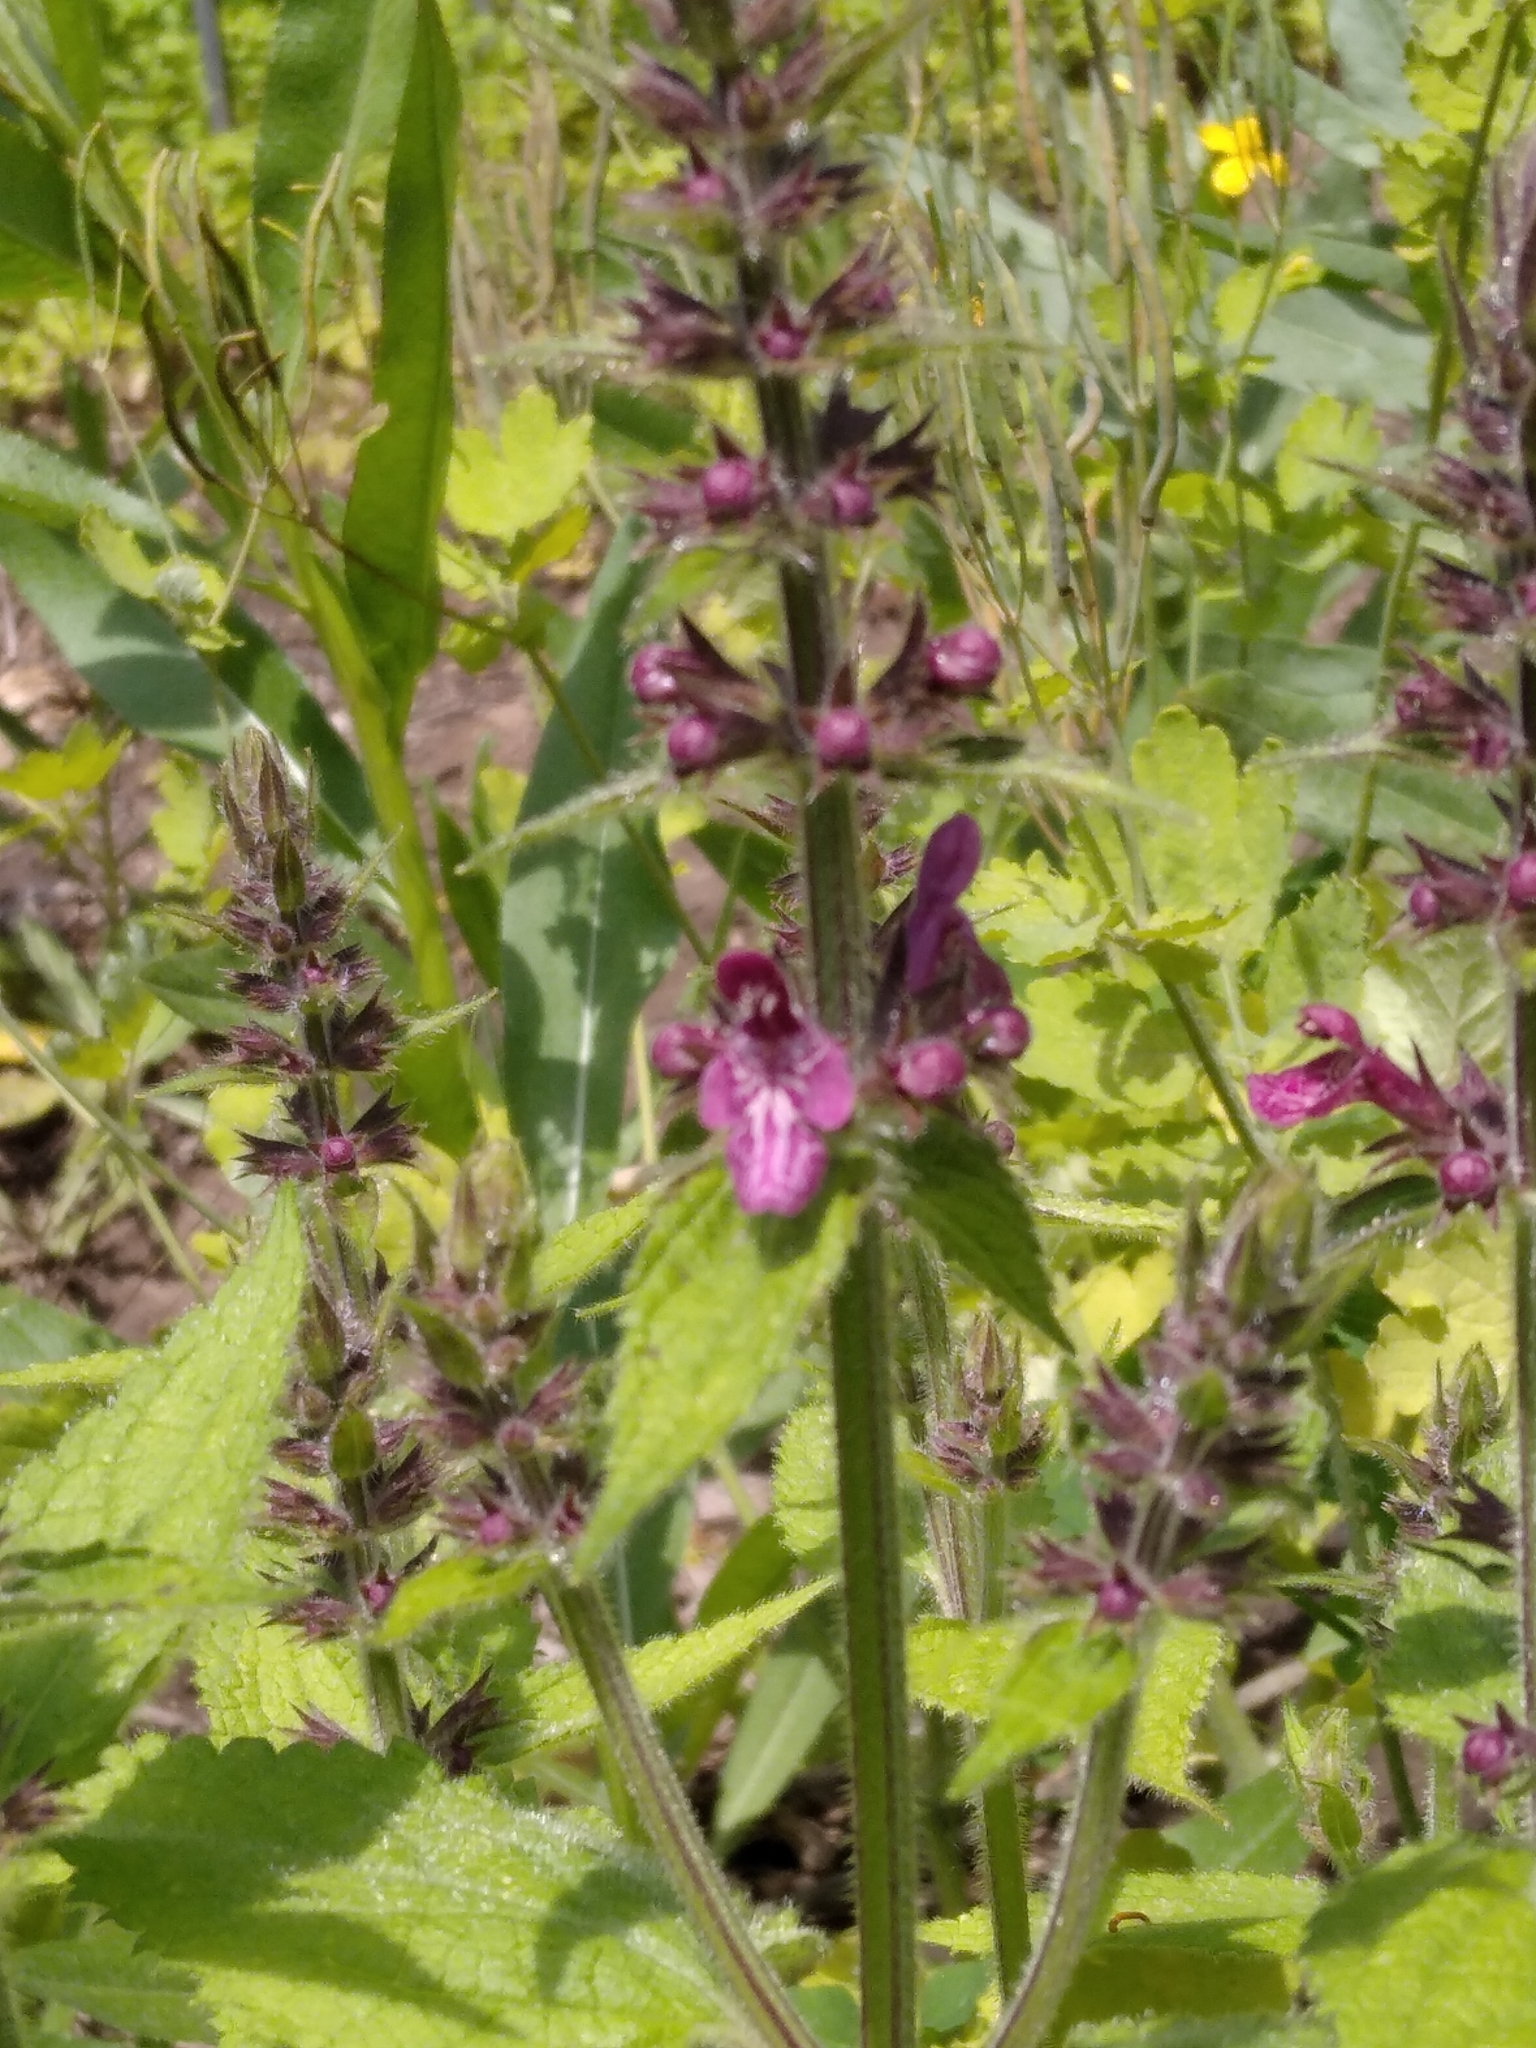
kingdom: Plantae
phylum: Tracheophyta
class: Magnoliopsida
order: Lamiales
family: Lamiaceae
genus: Stachys
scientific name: Stachys sylvatica
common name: Hedge woundwort
